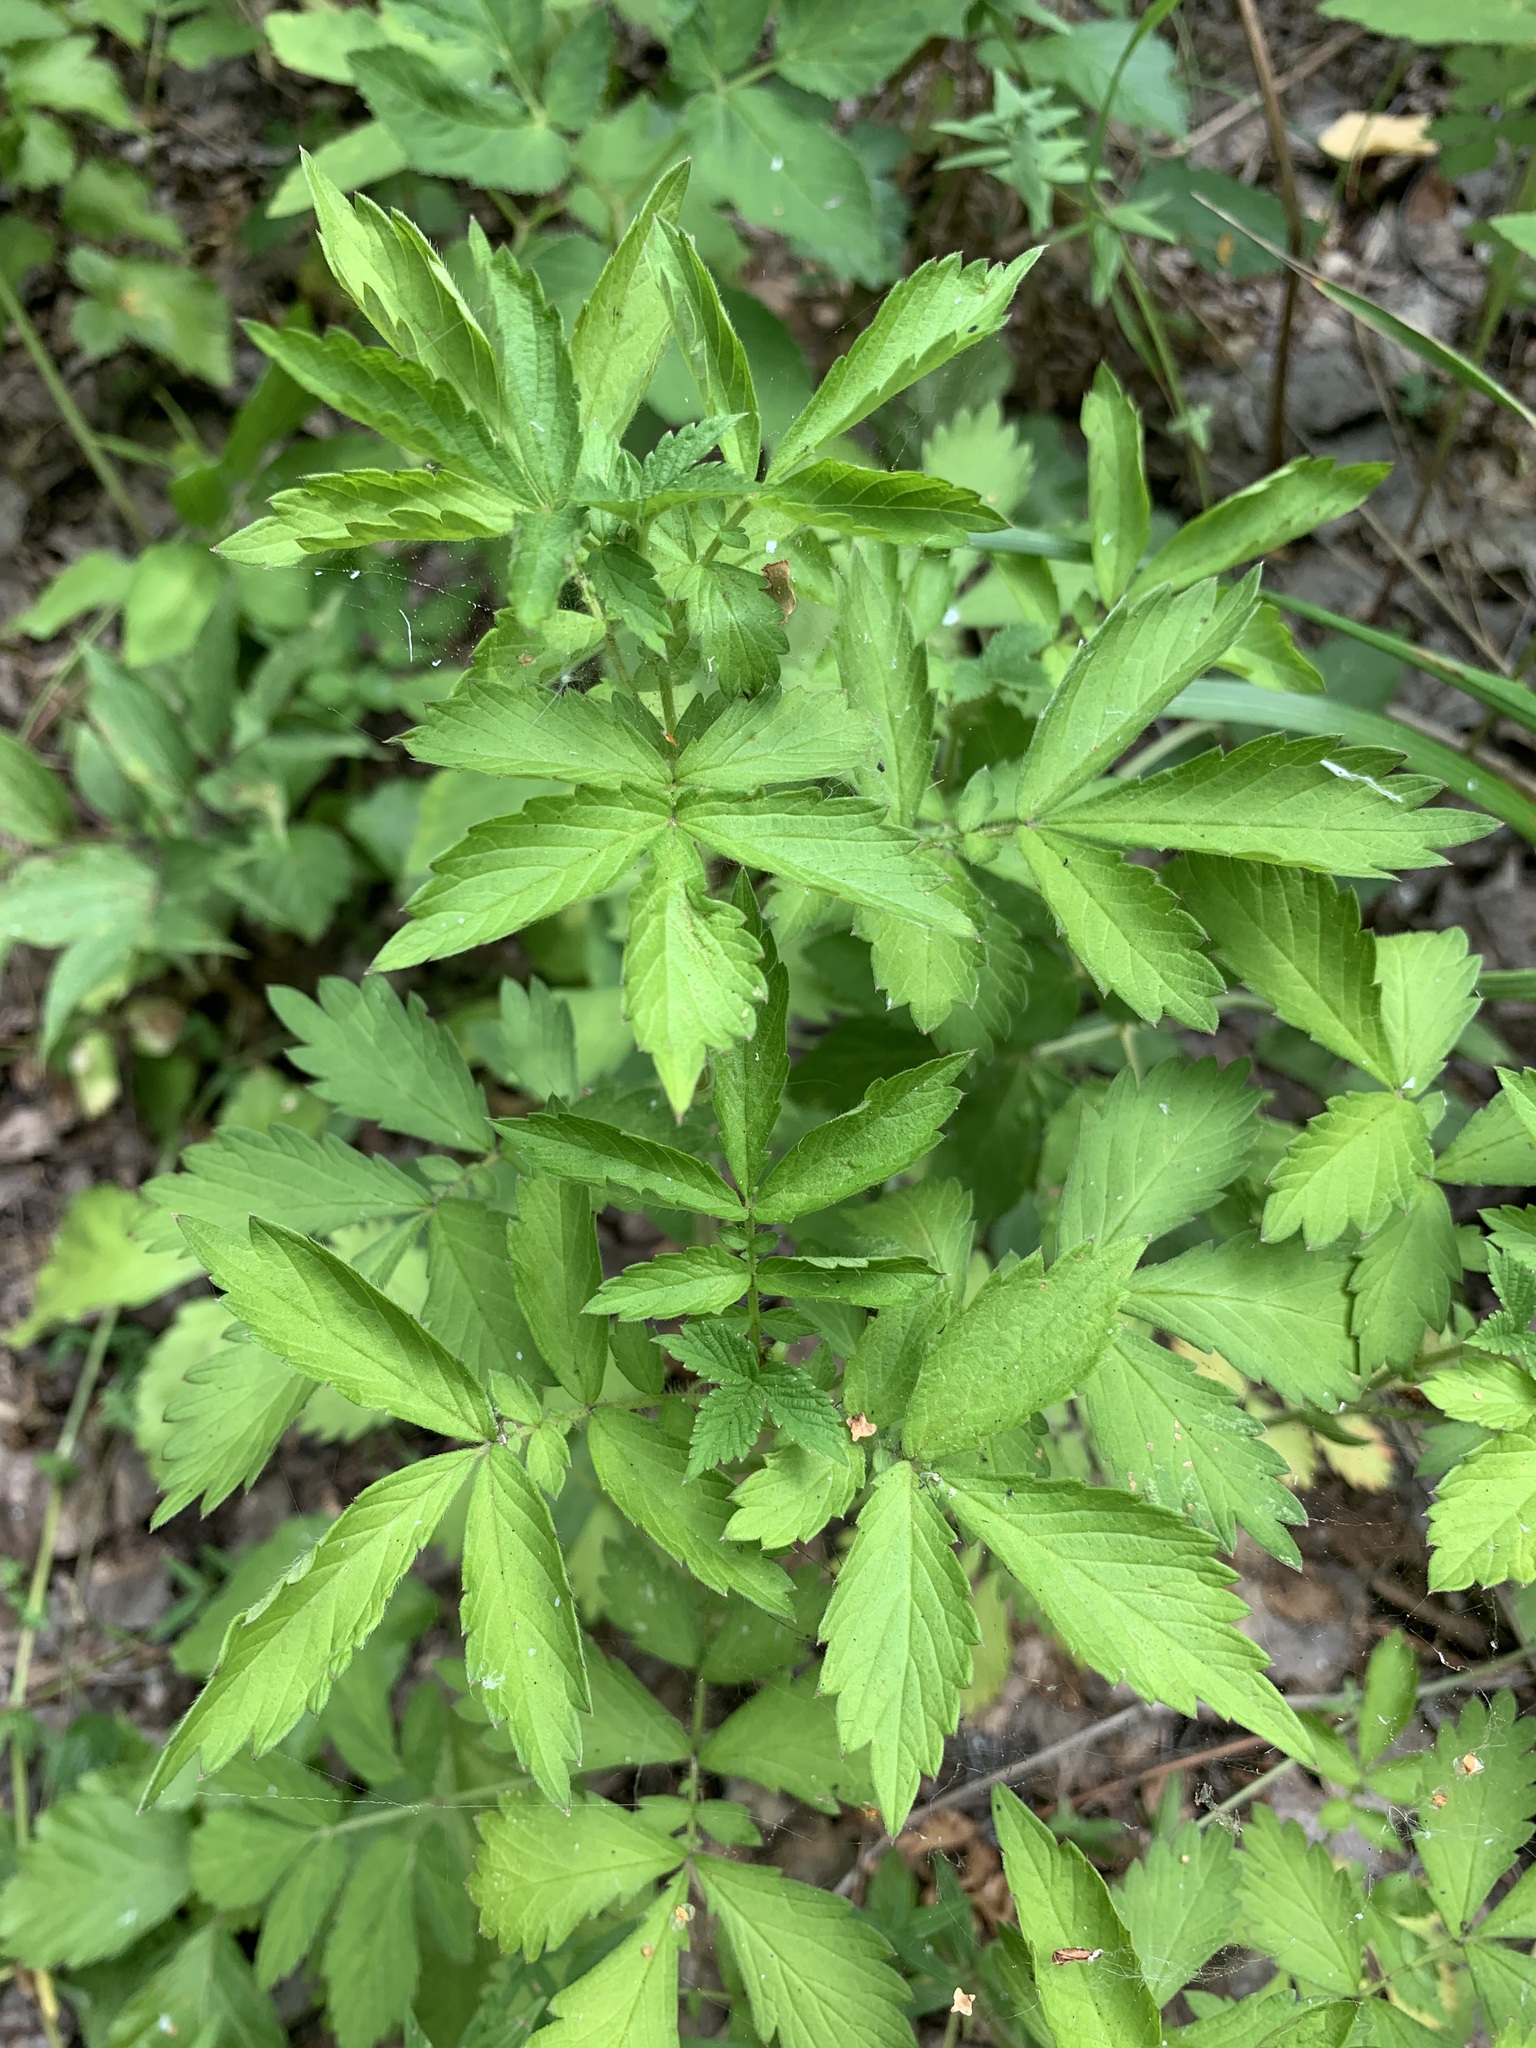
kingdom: Plantae
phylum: Tracheophyta
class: Magnoliopsida
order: Rosales
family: Rosaceae
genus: Agrimonia
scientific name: Agrimonia pilosa
